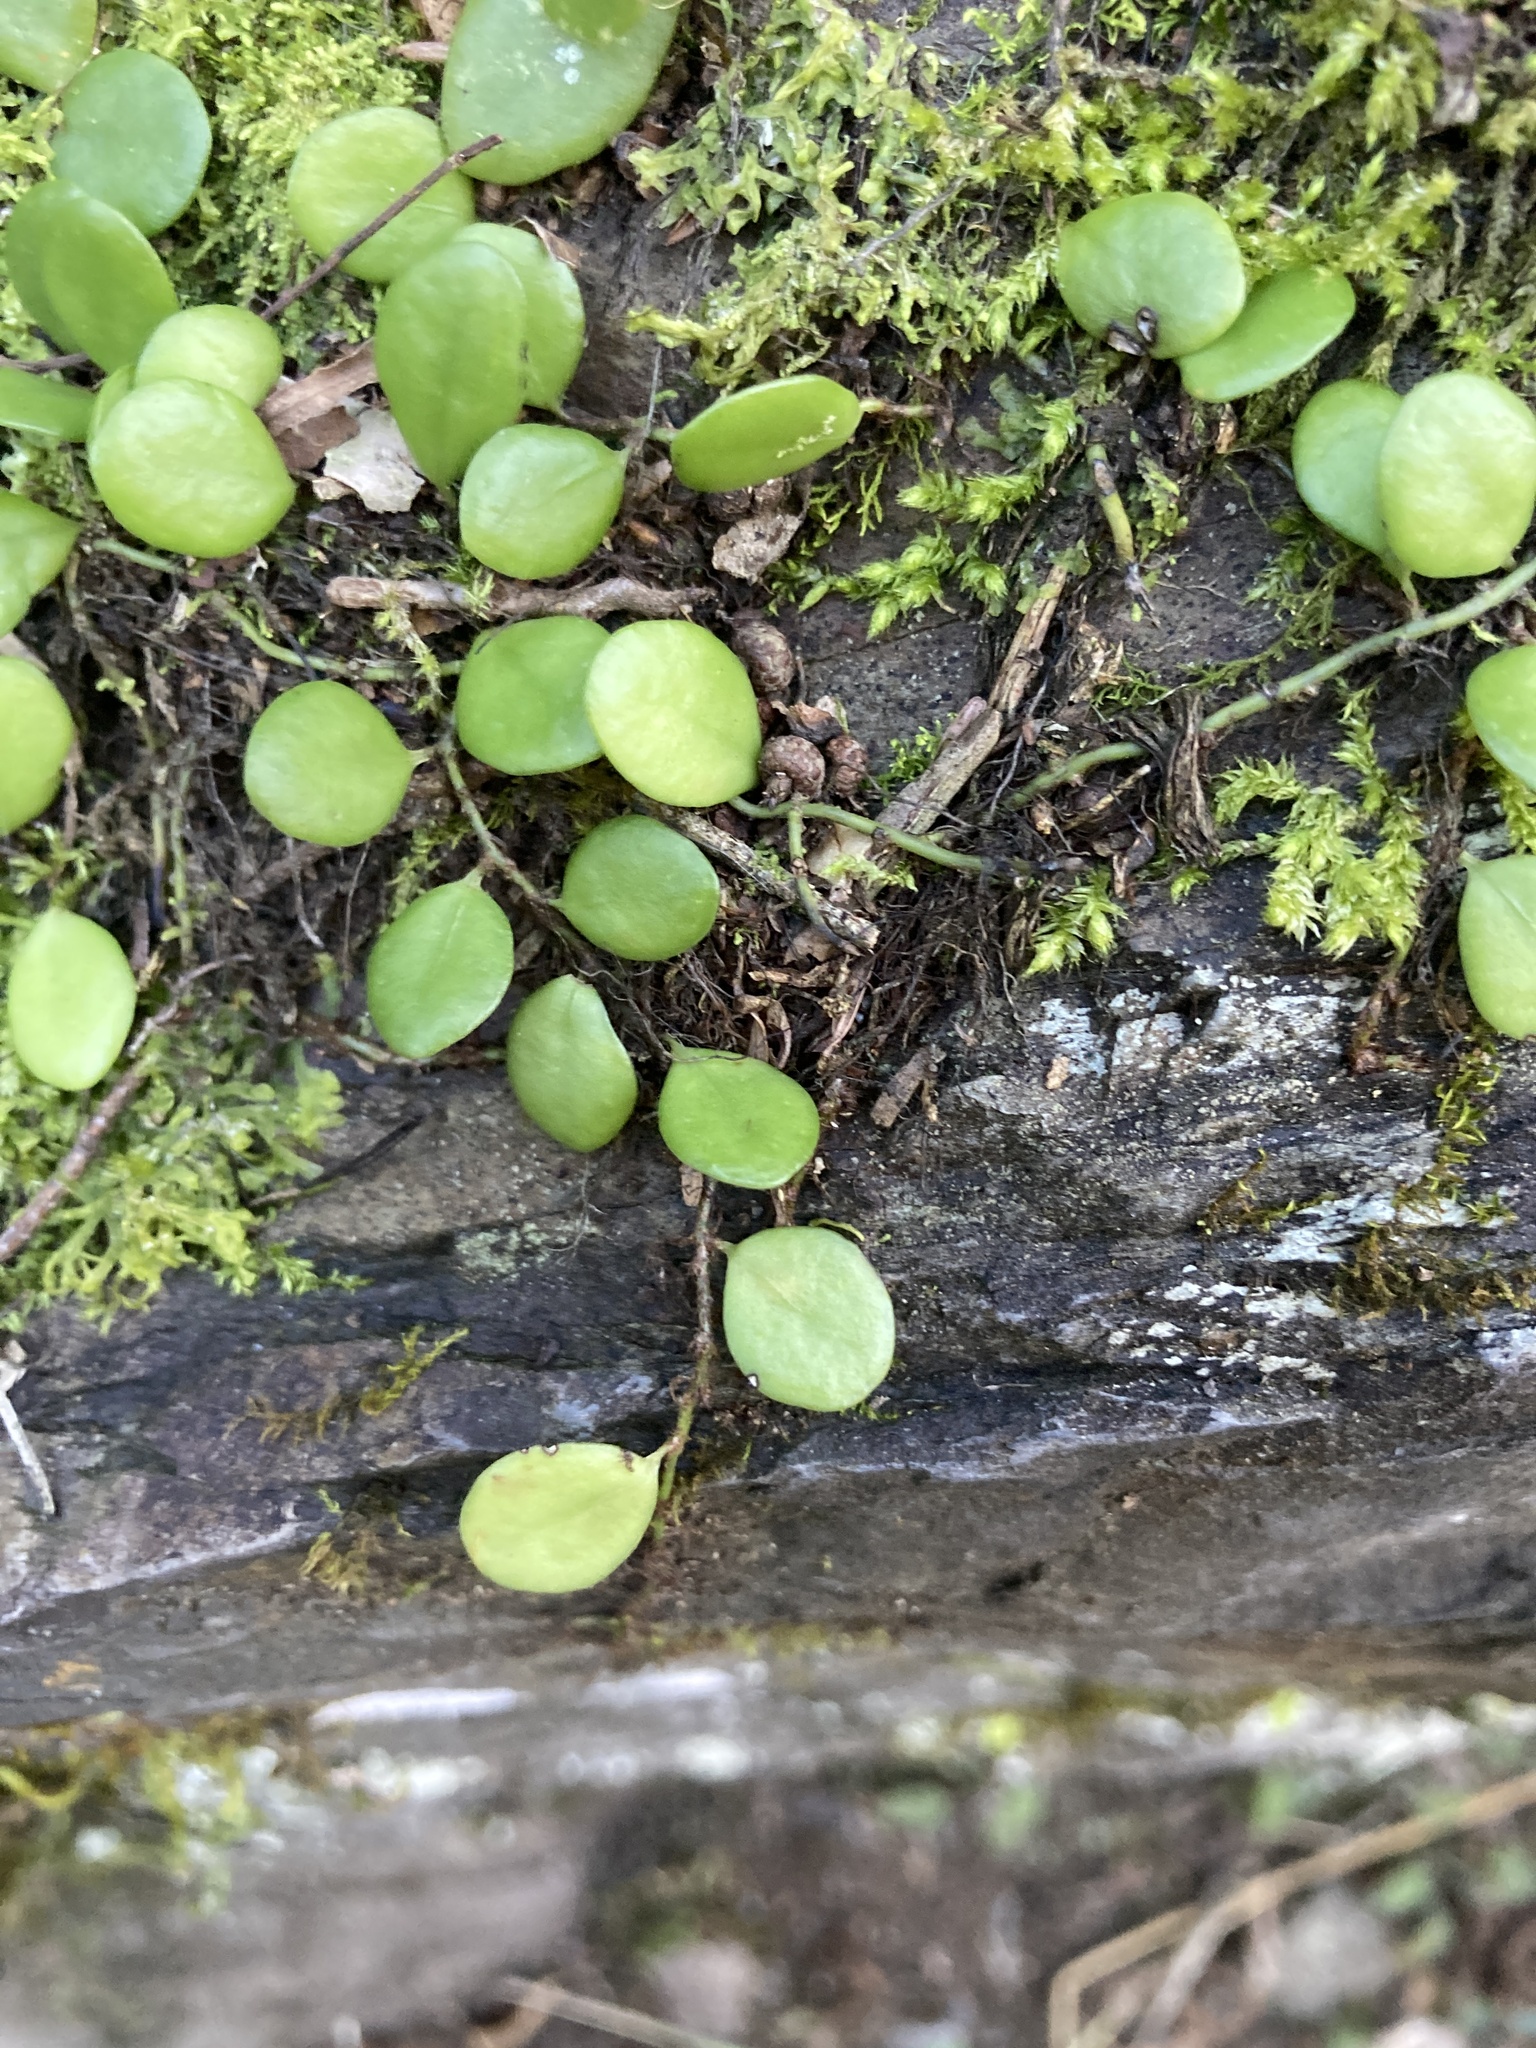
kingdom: Plantae
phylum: Tracheophyta
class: Polypodiopsida
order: Polypodiales
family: Polypodiaceae
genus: Lepisorus
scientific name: Lepisorus microphyllus
